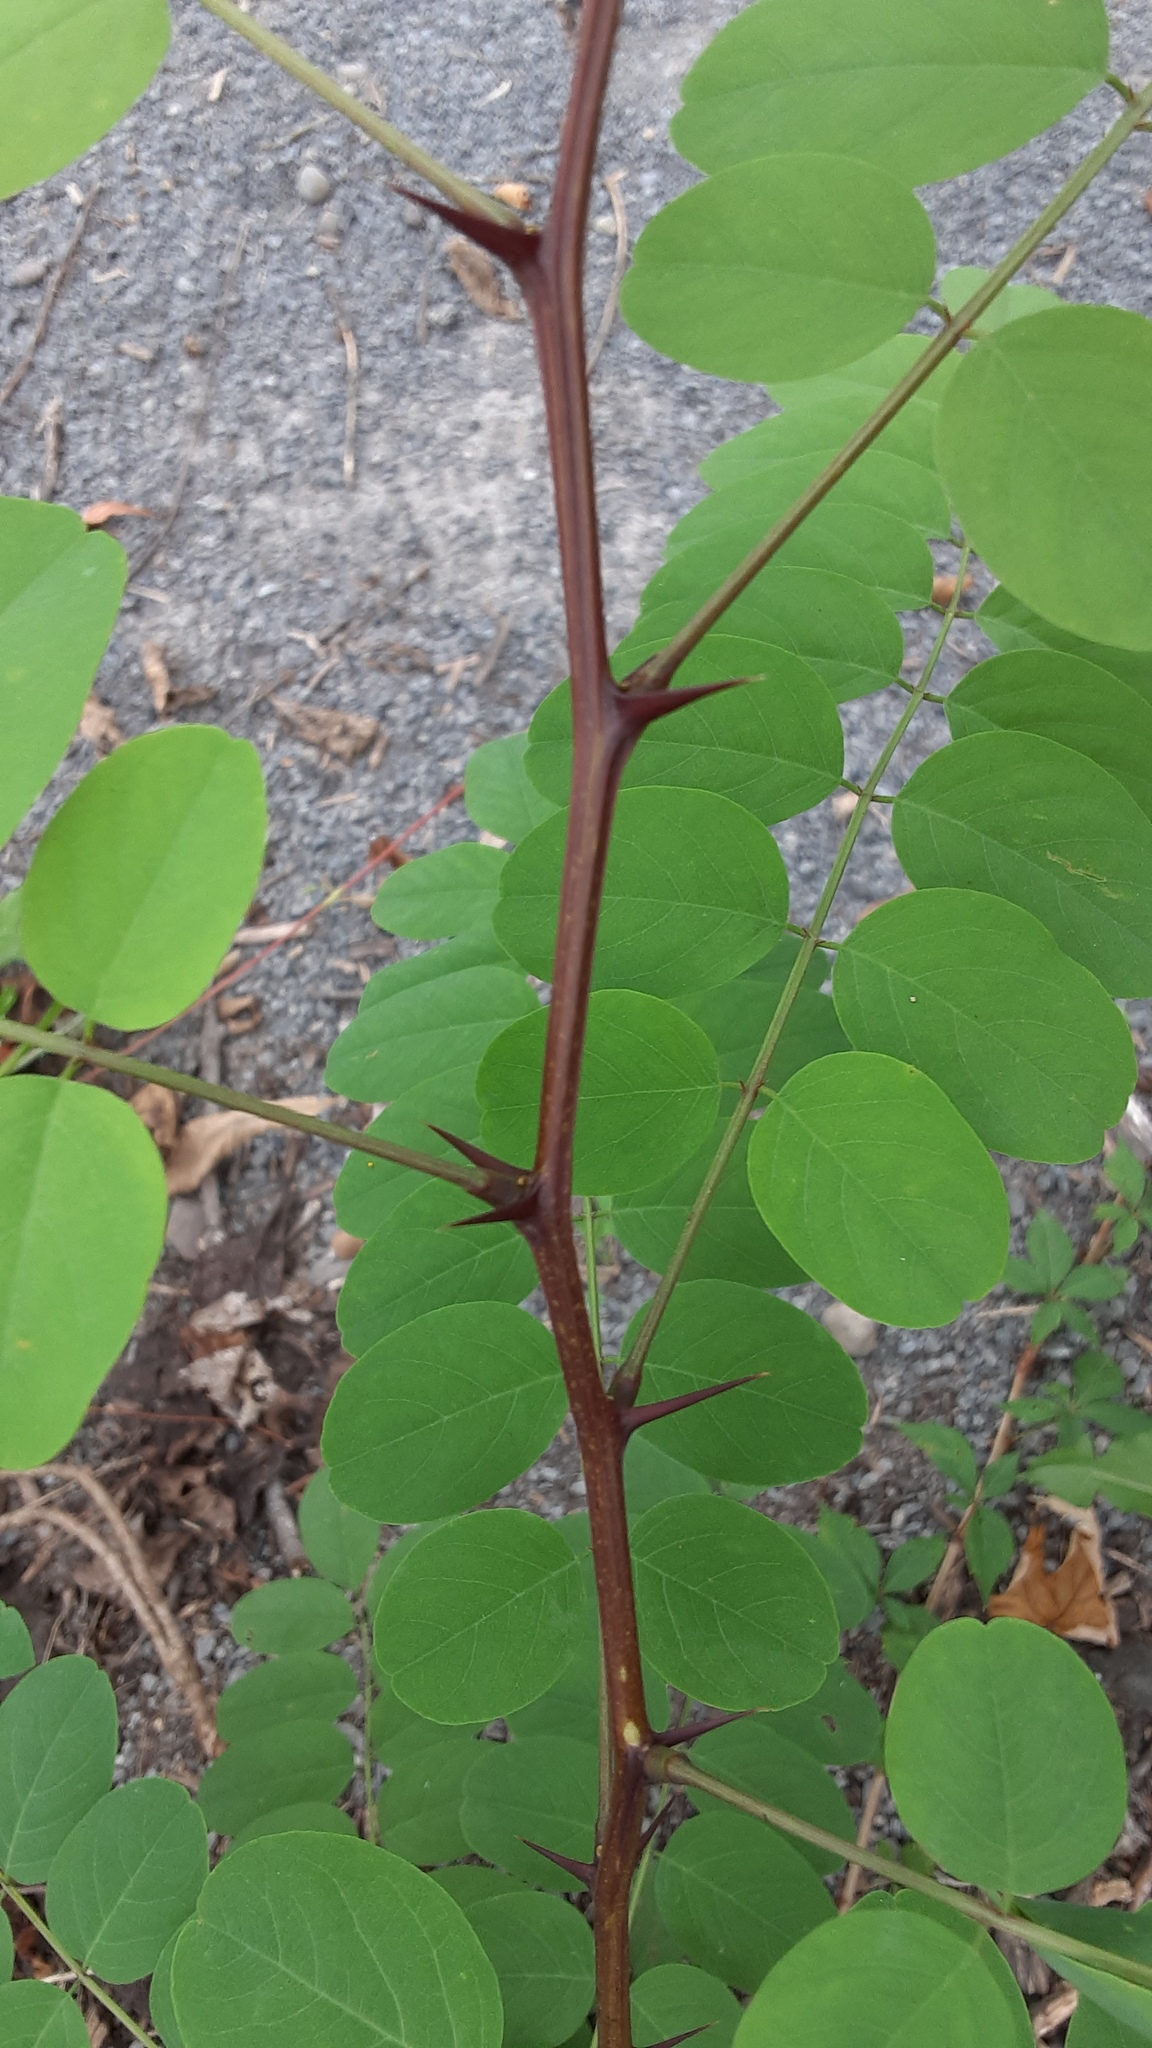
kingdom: Plantae
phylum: Tracheophyta
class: Magnoliopsida
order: Fabales
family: Fabaceae
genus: Robinia
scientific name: Robinia pseudoacacia
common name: Black locust
